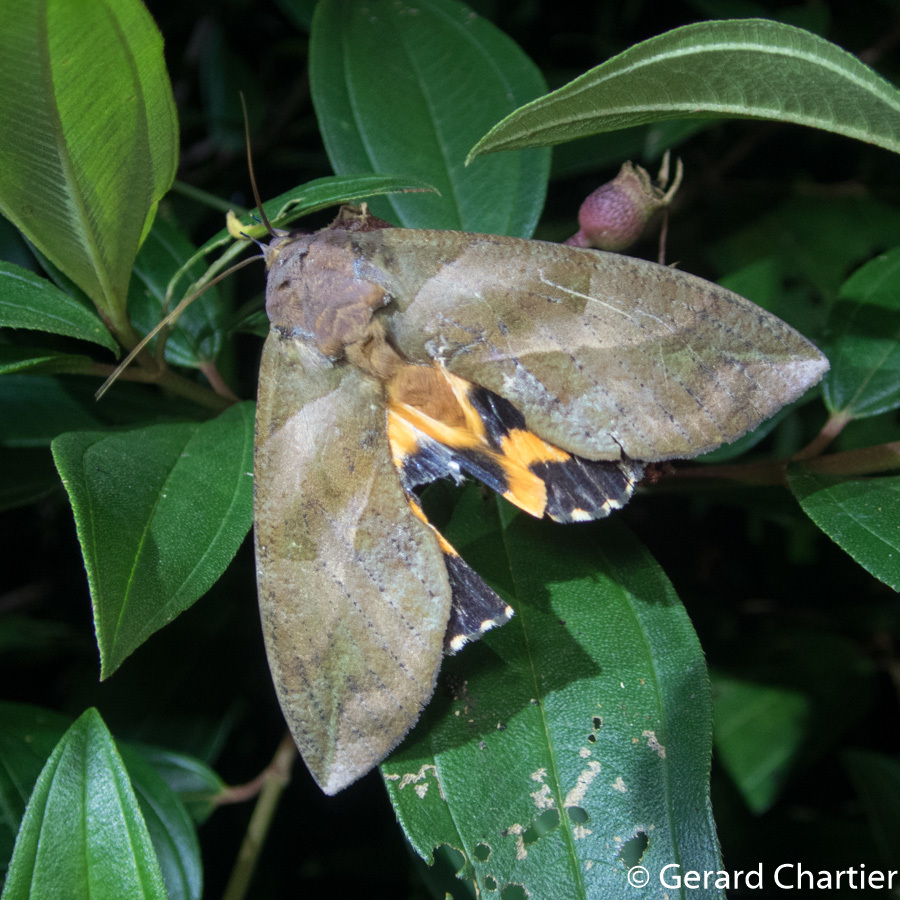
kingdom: Animalia
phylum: Arthropoda
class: Insecta
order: Lepidoptera
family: Erebidae
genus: Eudocima
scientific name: Eudocima phalonia
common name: Wasp
